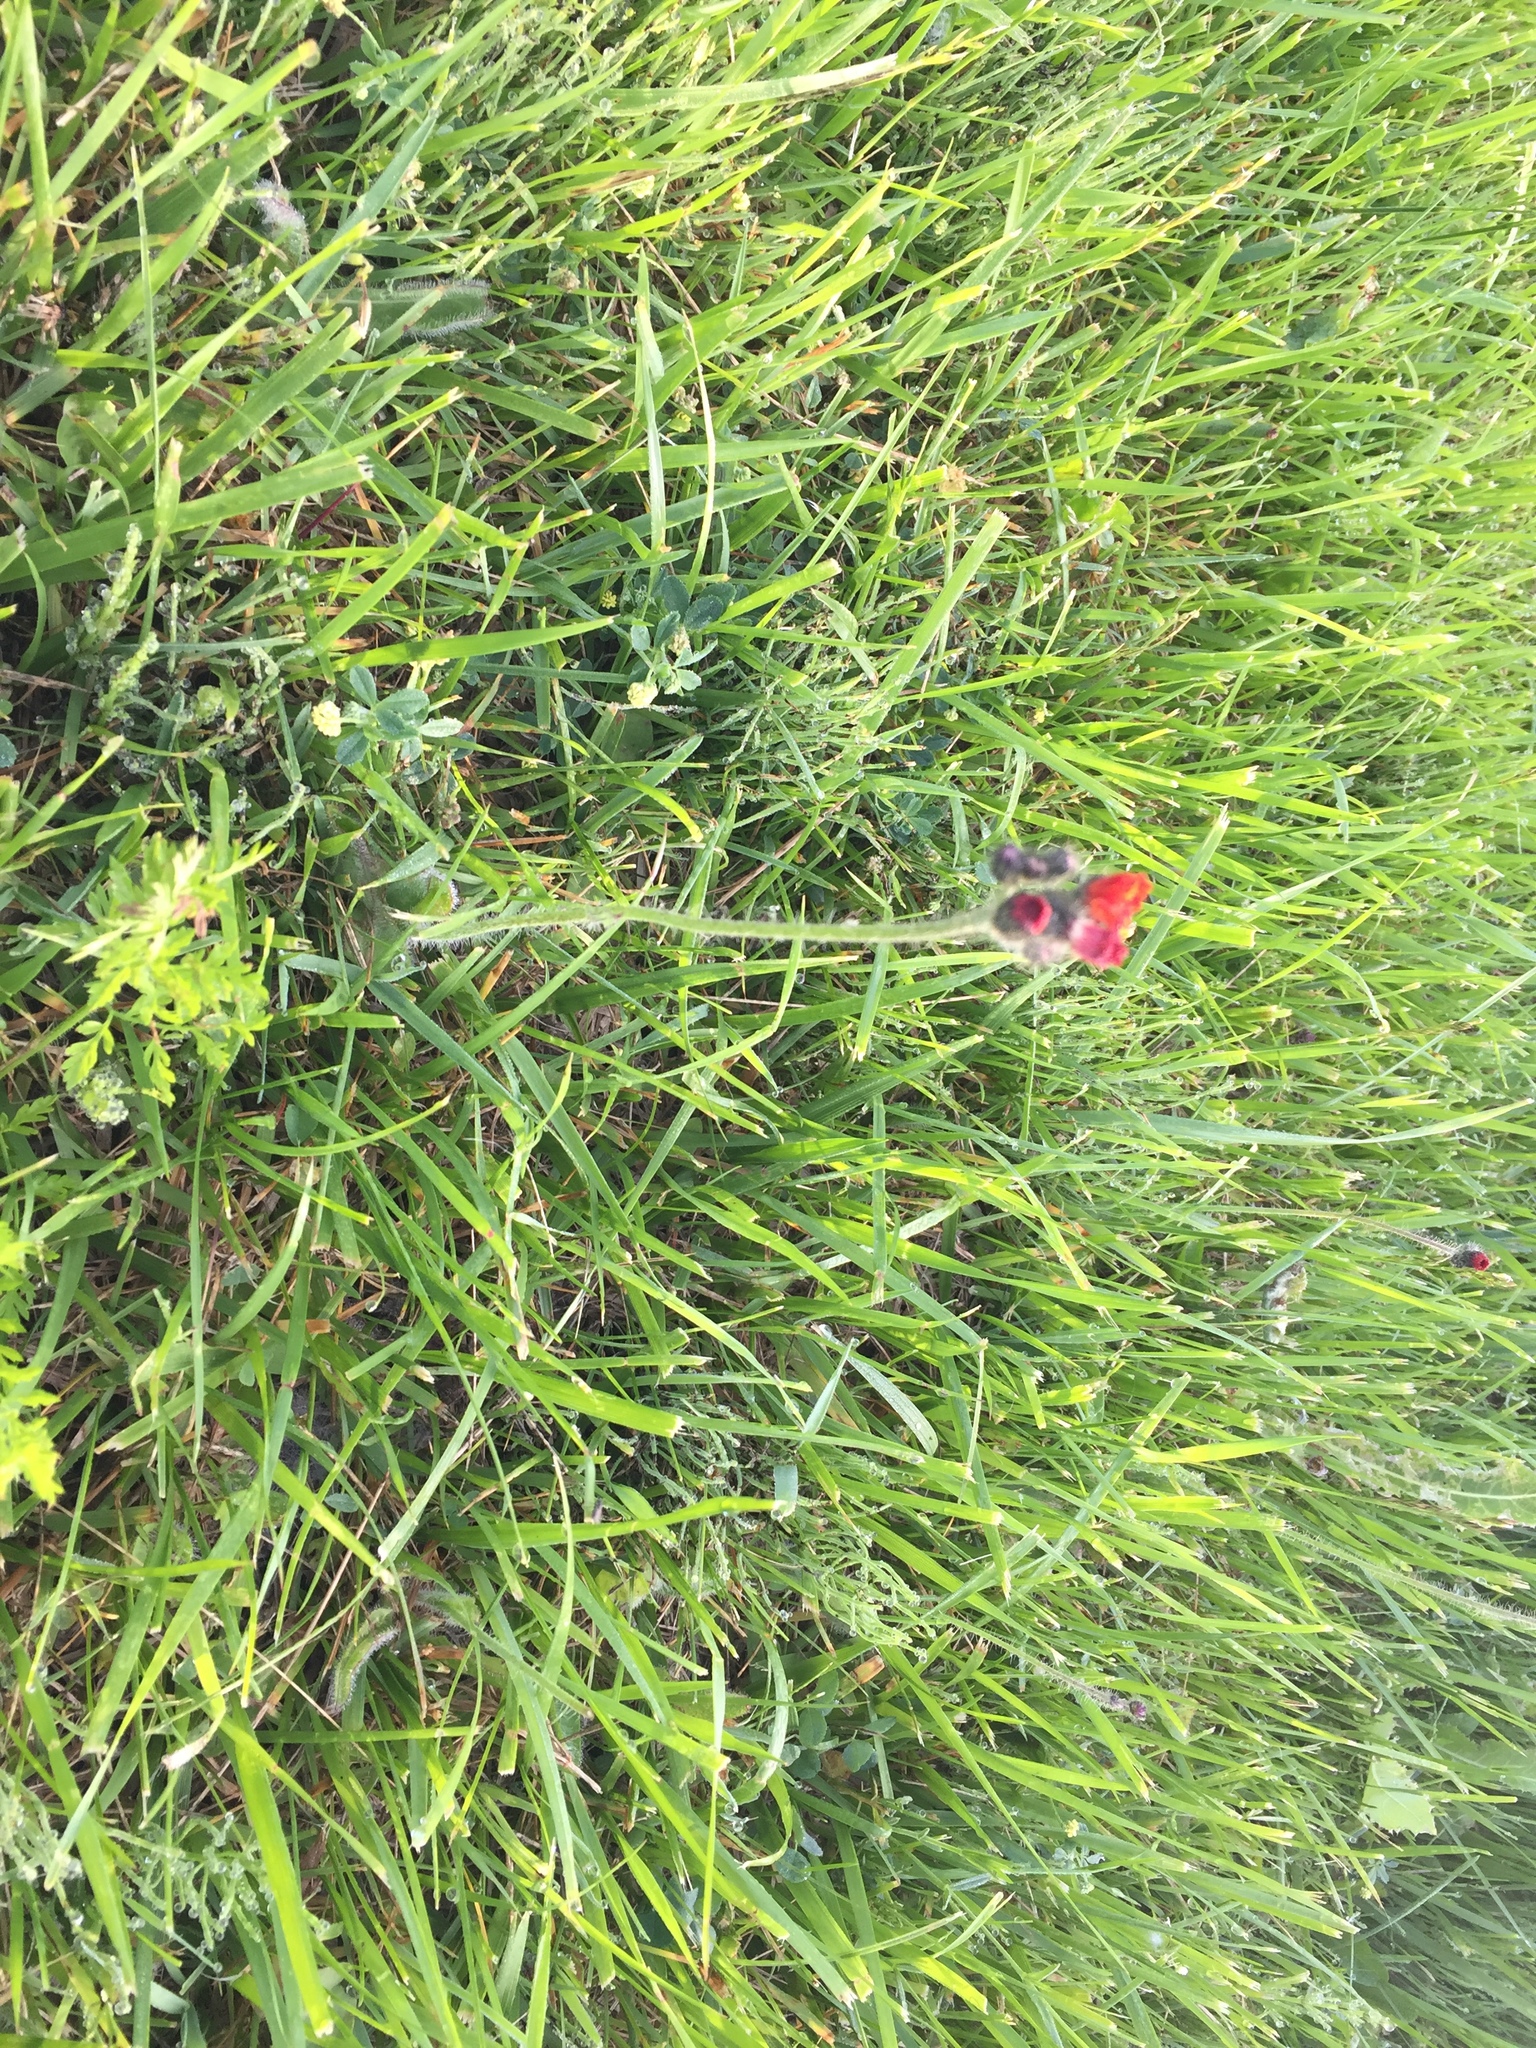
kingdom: Plantae
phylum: Tracheophyta
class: Magnoliopsida
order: Asterales
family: Asteraceae
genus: Pilosella
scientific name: Pilosella aurantiaca
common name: Fox-and-cubs
